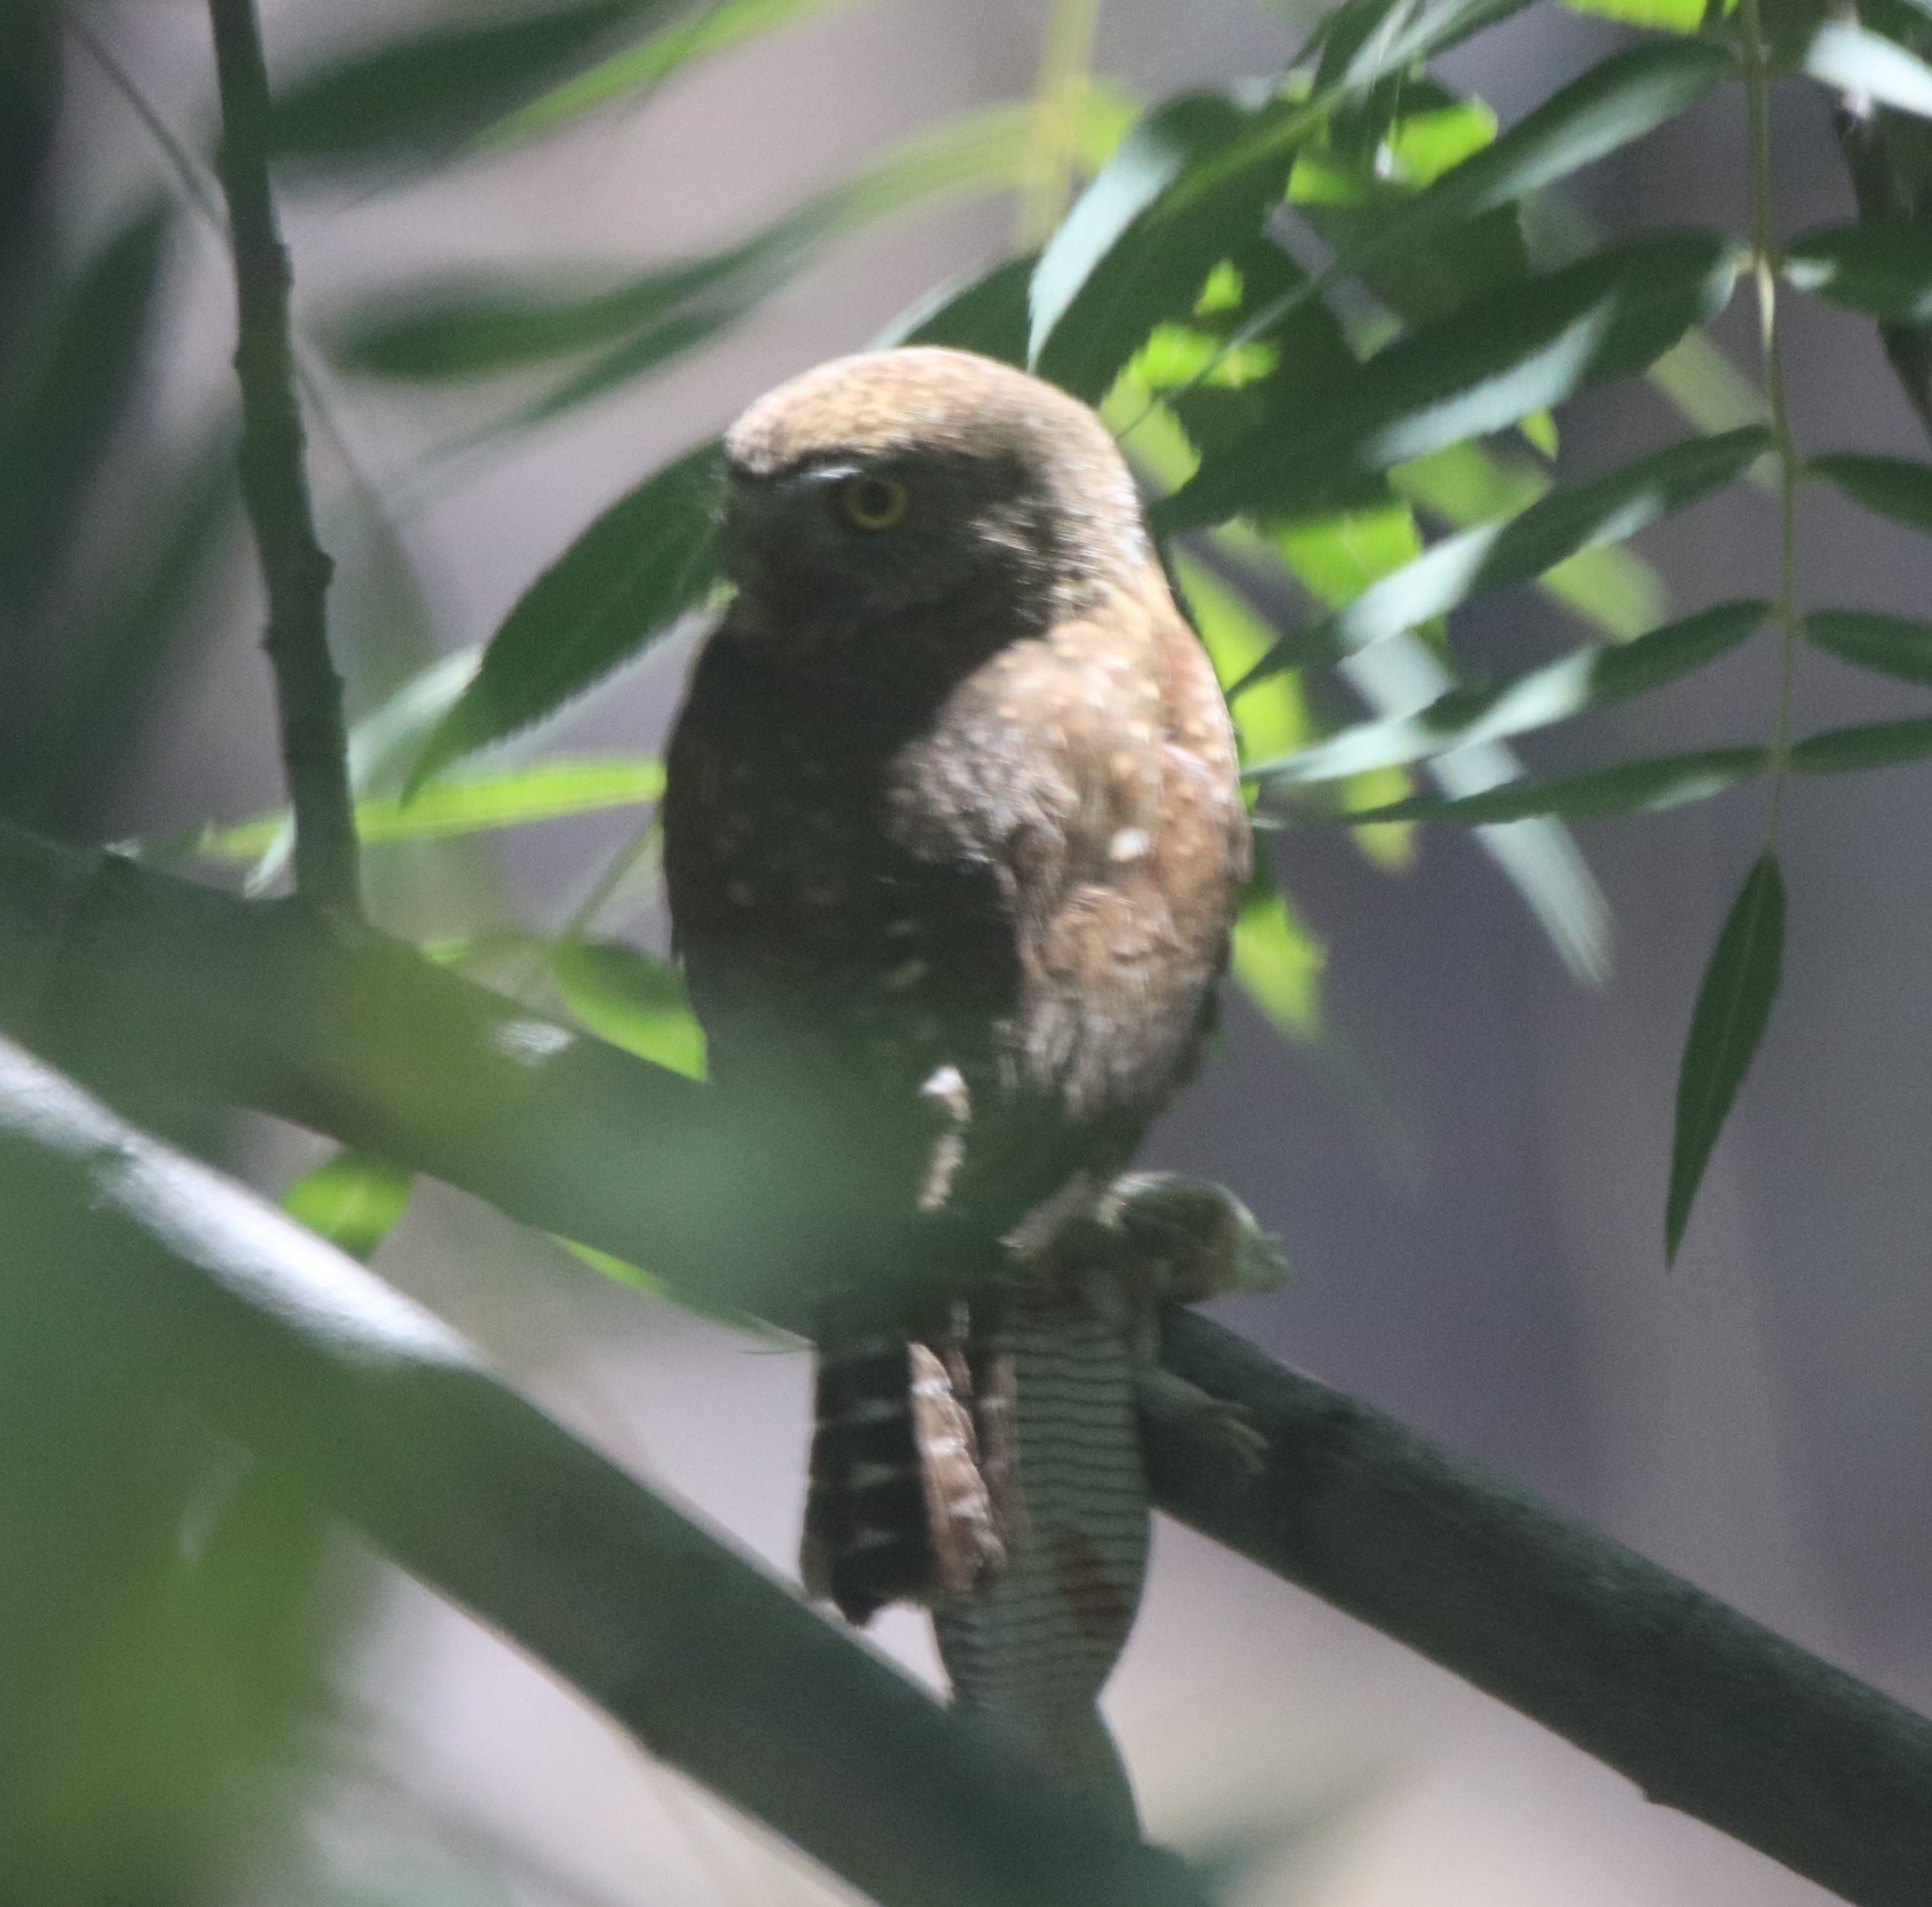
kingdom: Animalia
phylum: Chordata
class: Aves
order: Strigiformes
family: Strigidae
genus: Glaucidium
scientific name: Glaucidium gnoma
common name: Northern pygmy-owl
